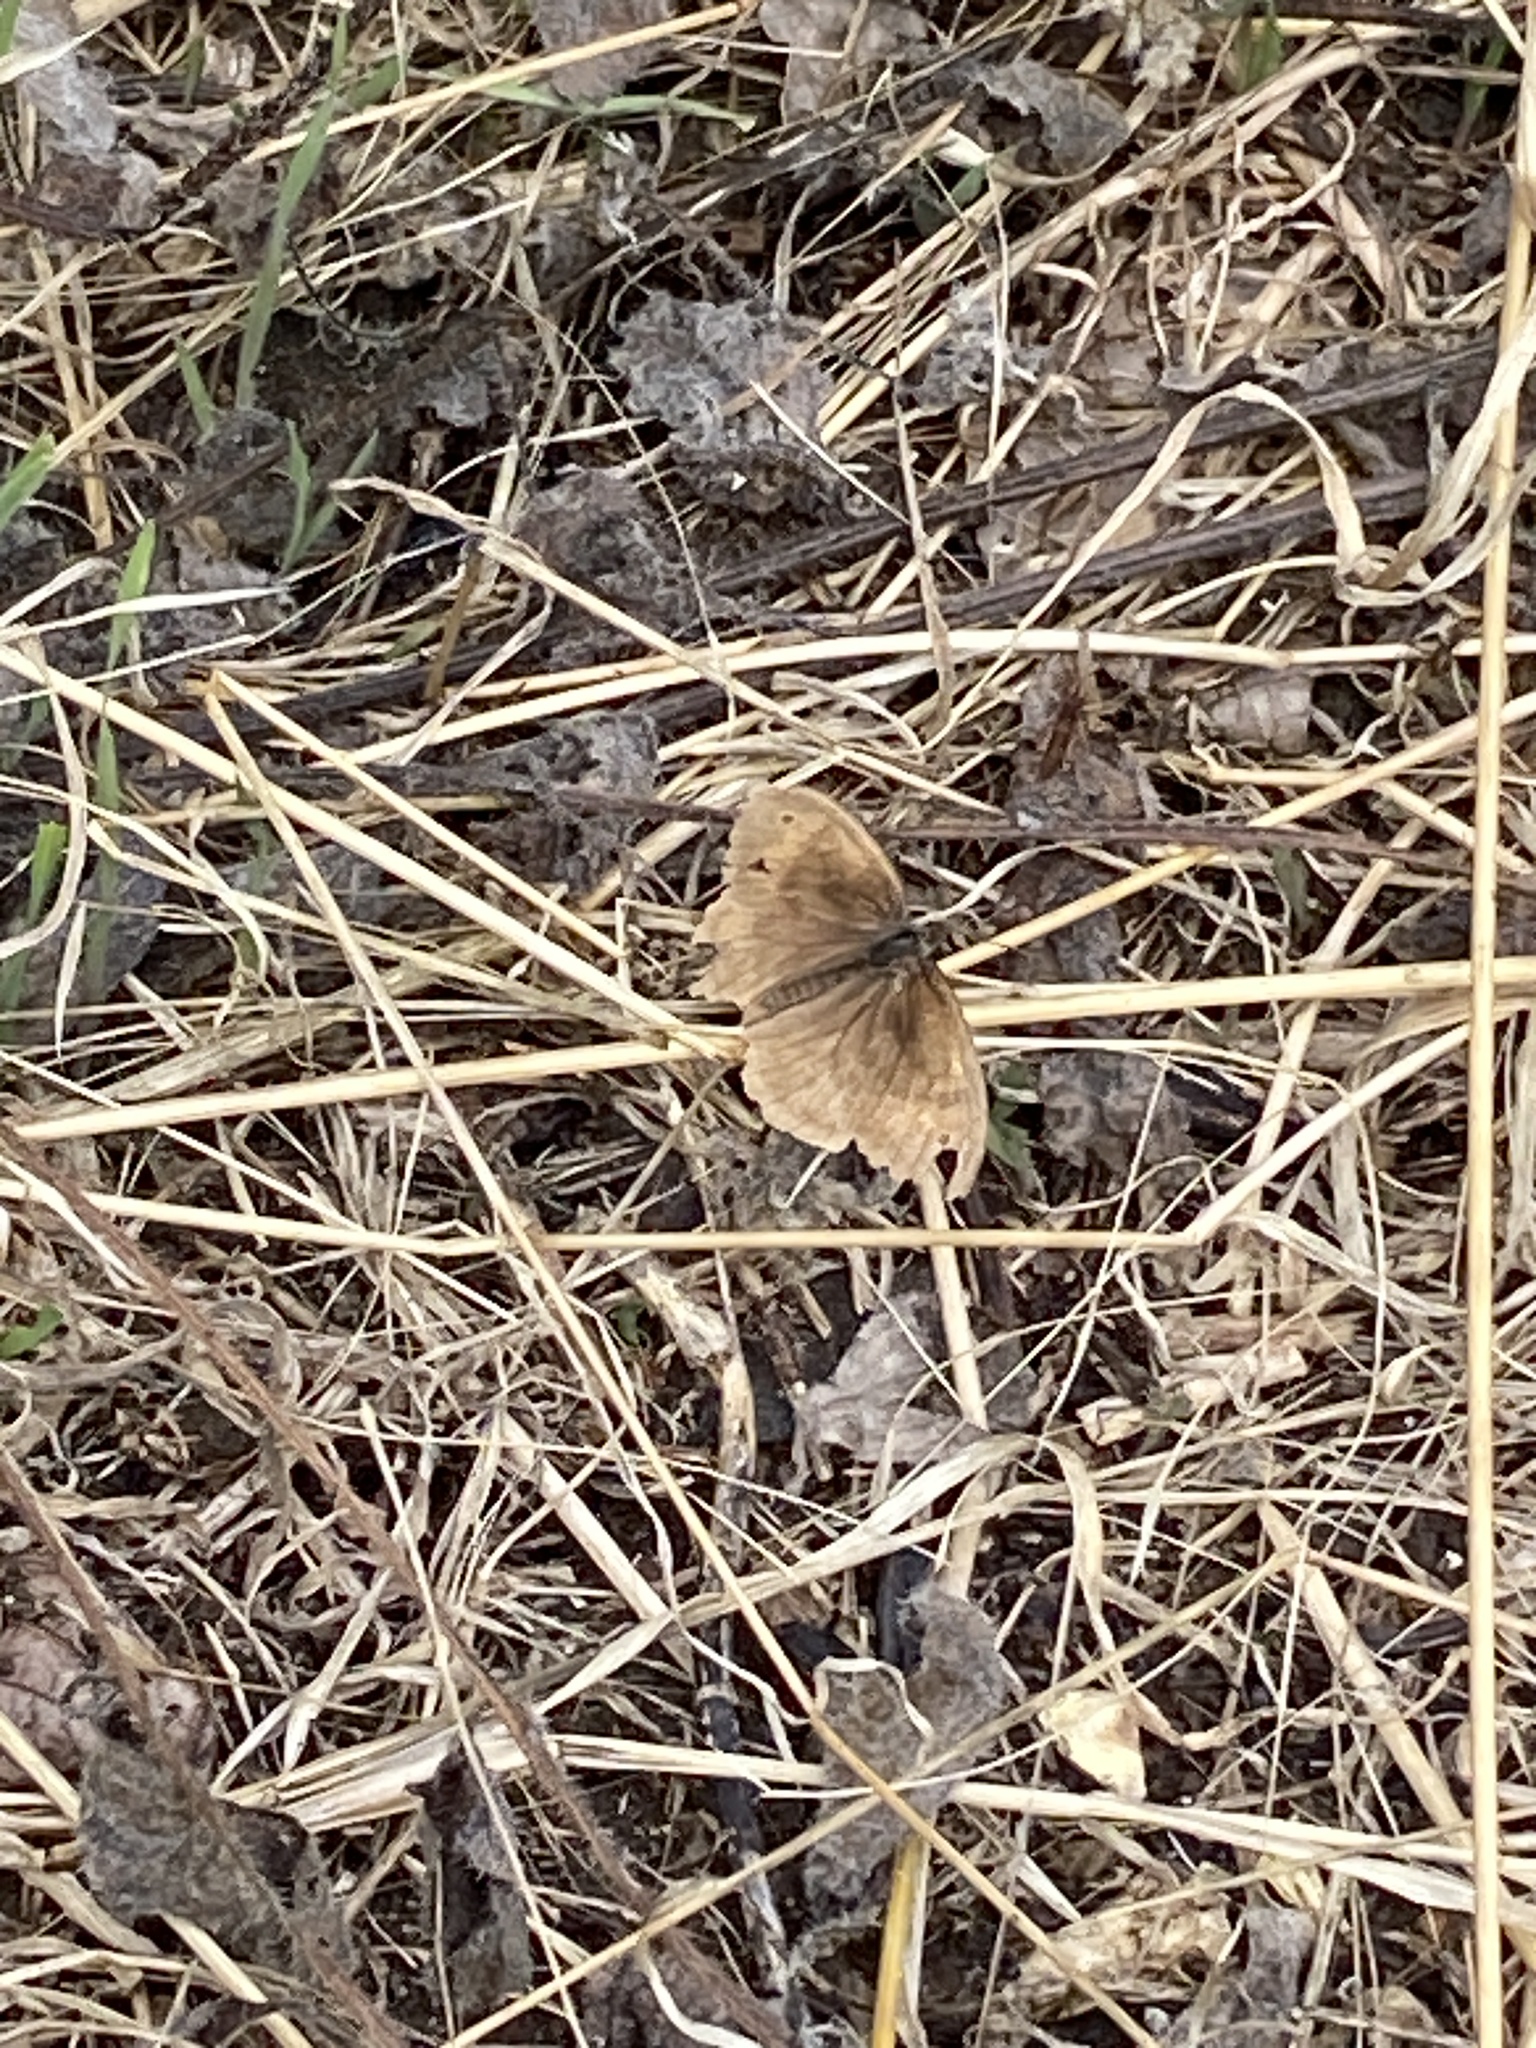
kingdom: Animalia
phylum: Arthropoda
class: Insecta
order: Lepidoptera
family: Nymphalidae
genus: Aphantopus
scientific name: Aphantopus hyperantus
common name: Ringlet
